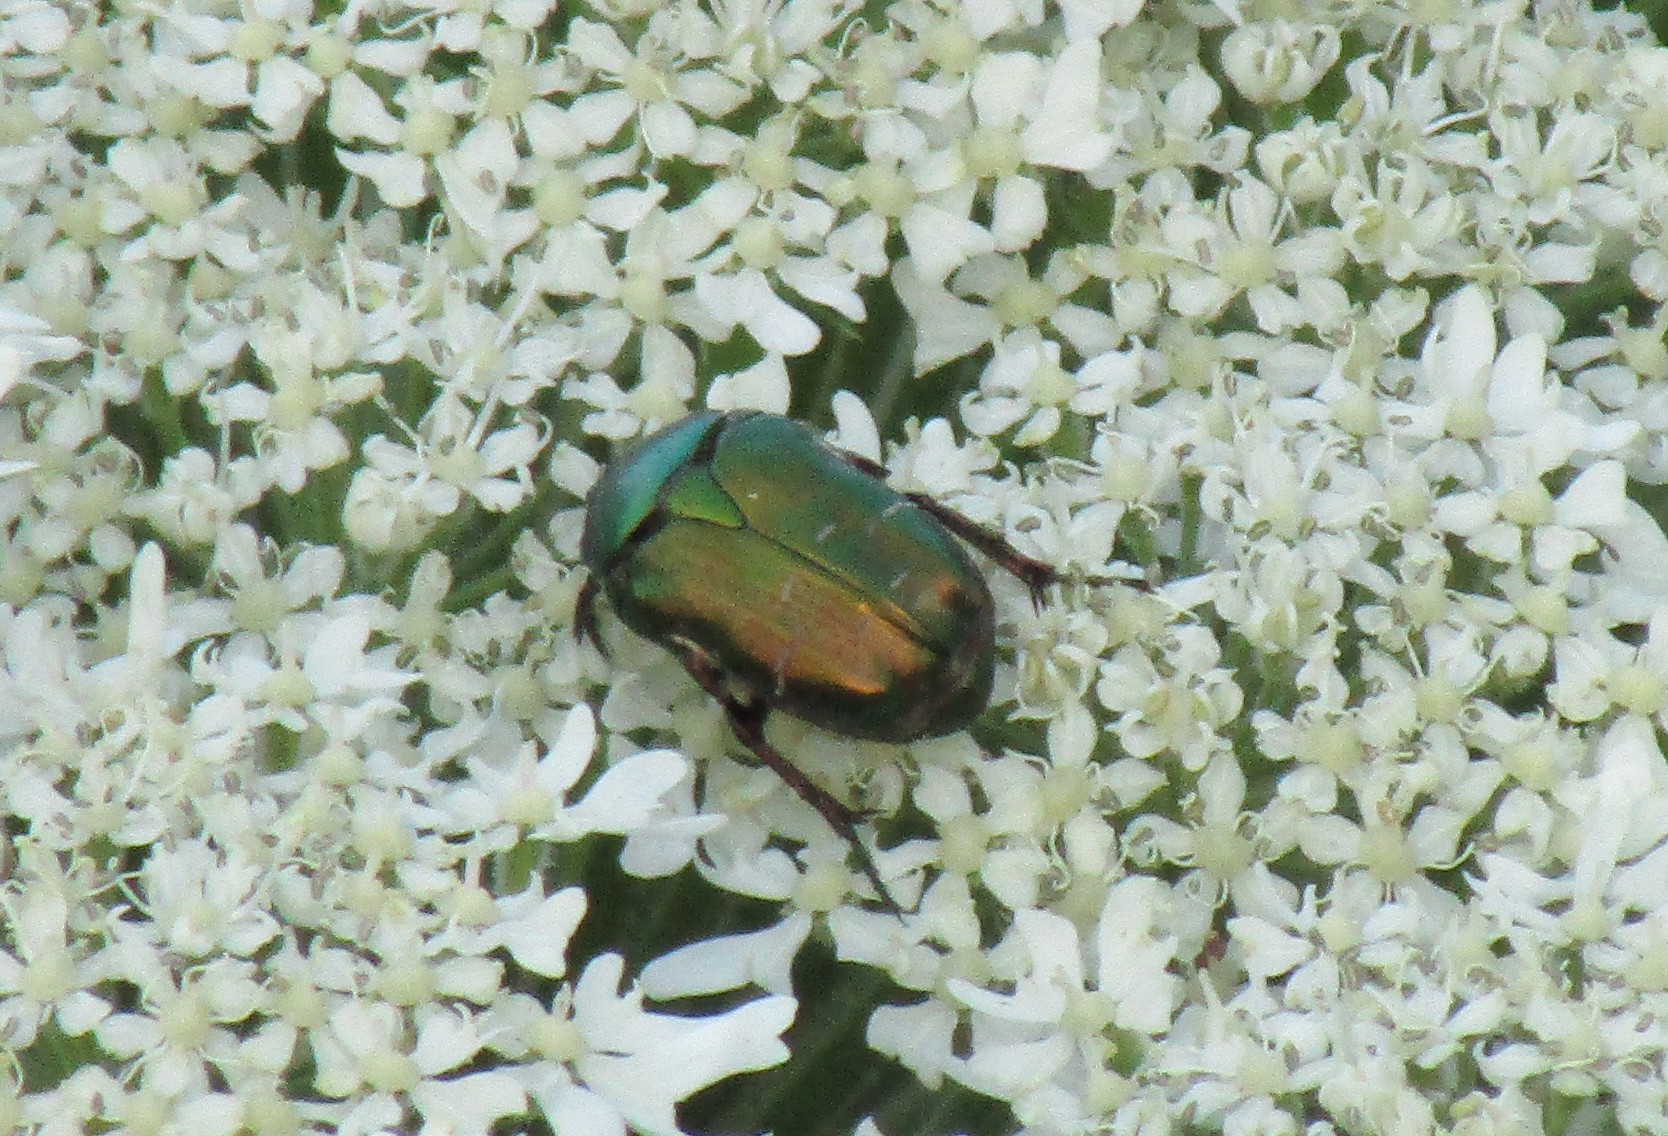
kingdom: Animalia
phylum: Arthropoda
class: Insecta
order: Coleoptera
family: Scarabaeidae
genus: Cetonia
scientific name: Cetonia aurata
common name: Rose chafer
